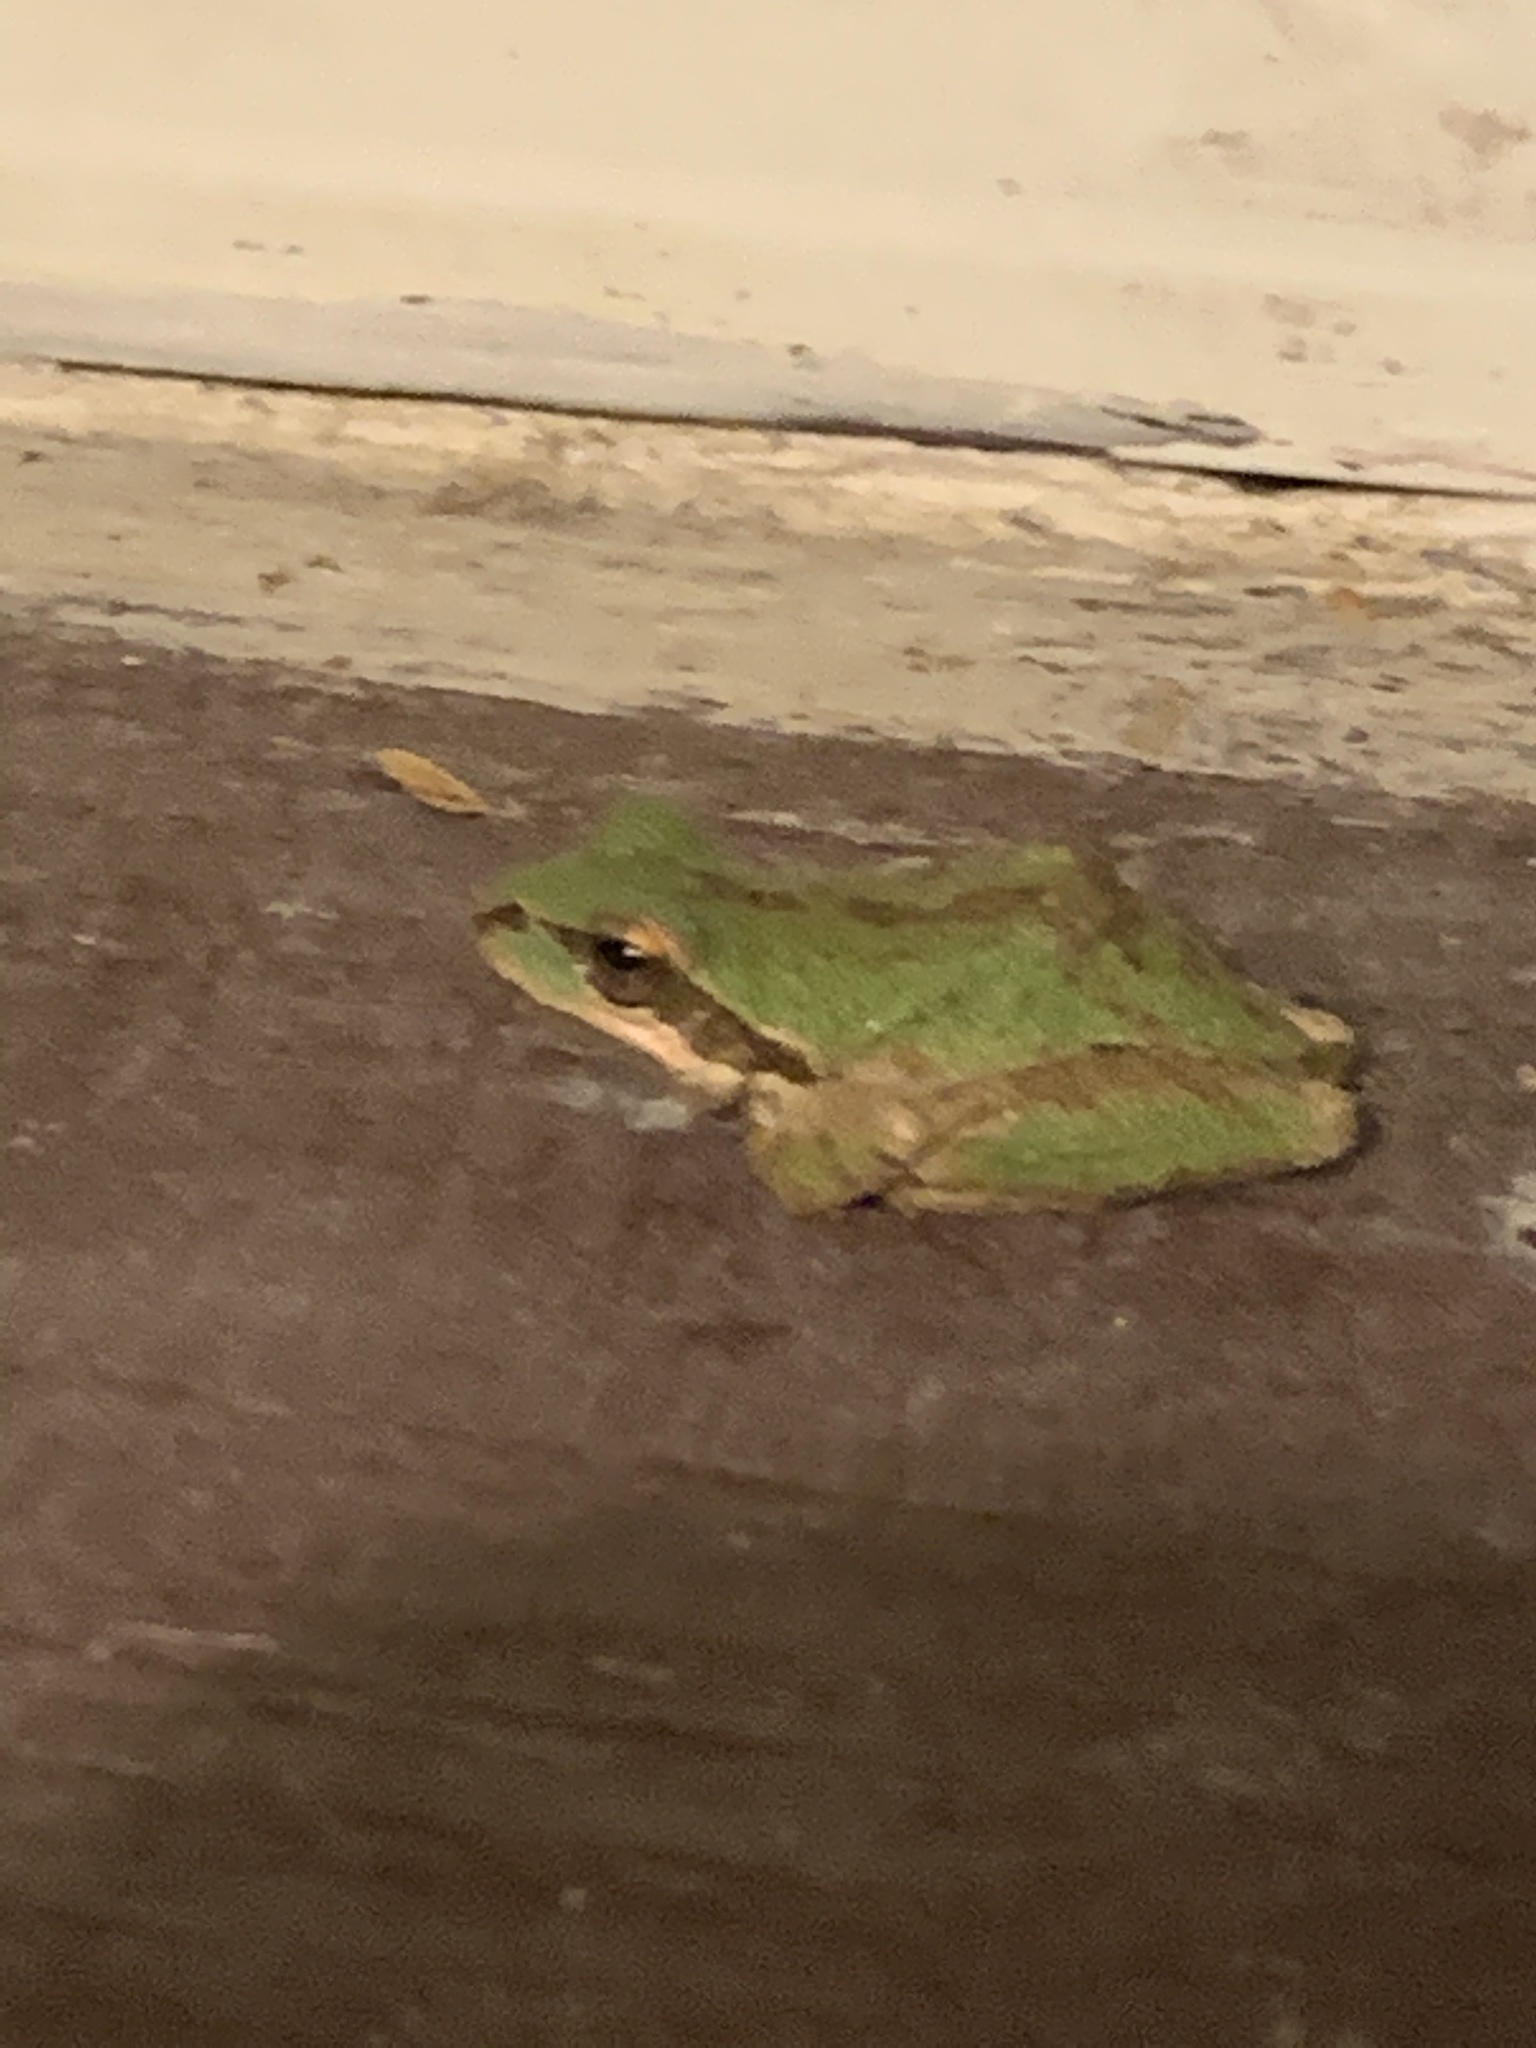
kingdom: Animalia
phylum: Chordata
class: Amphibia
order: Anura
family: Hylidae
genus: Pseudacris
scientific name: Pseudacris regilla
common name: Pacific chorus frog
